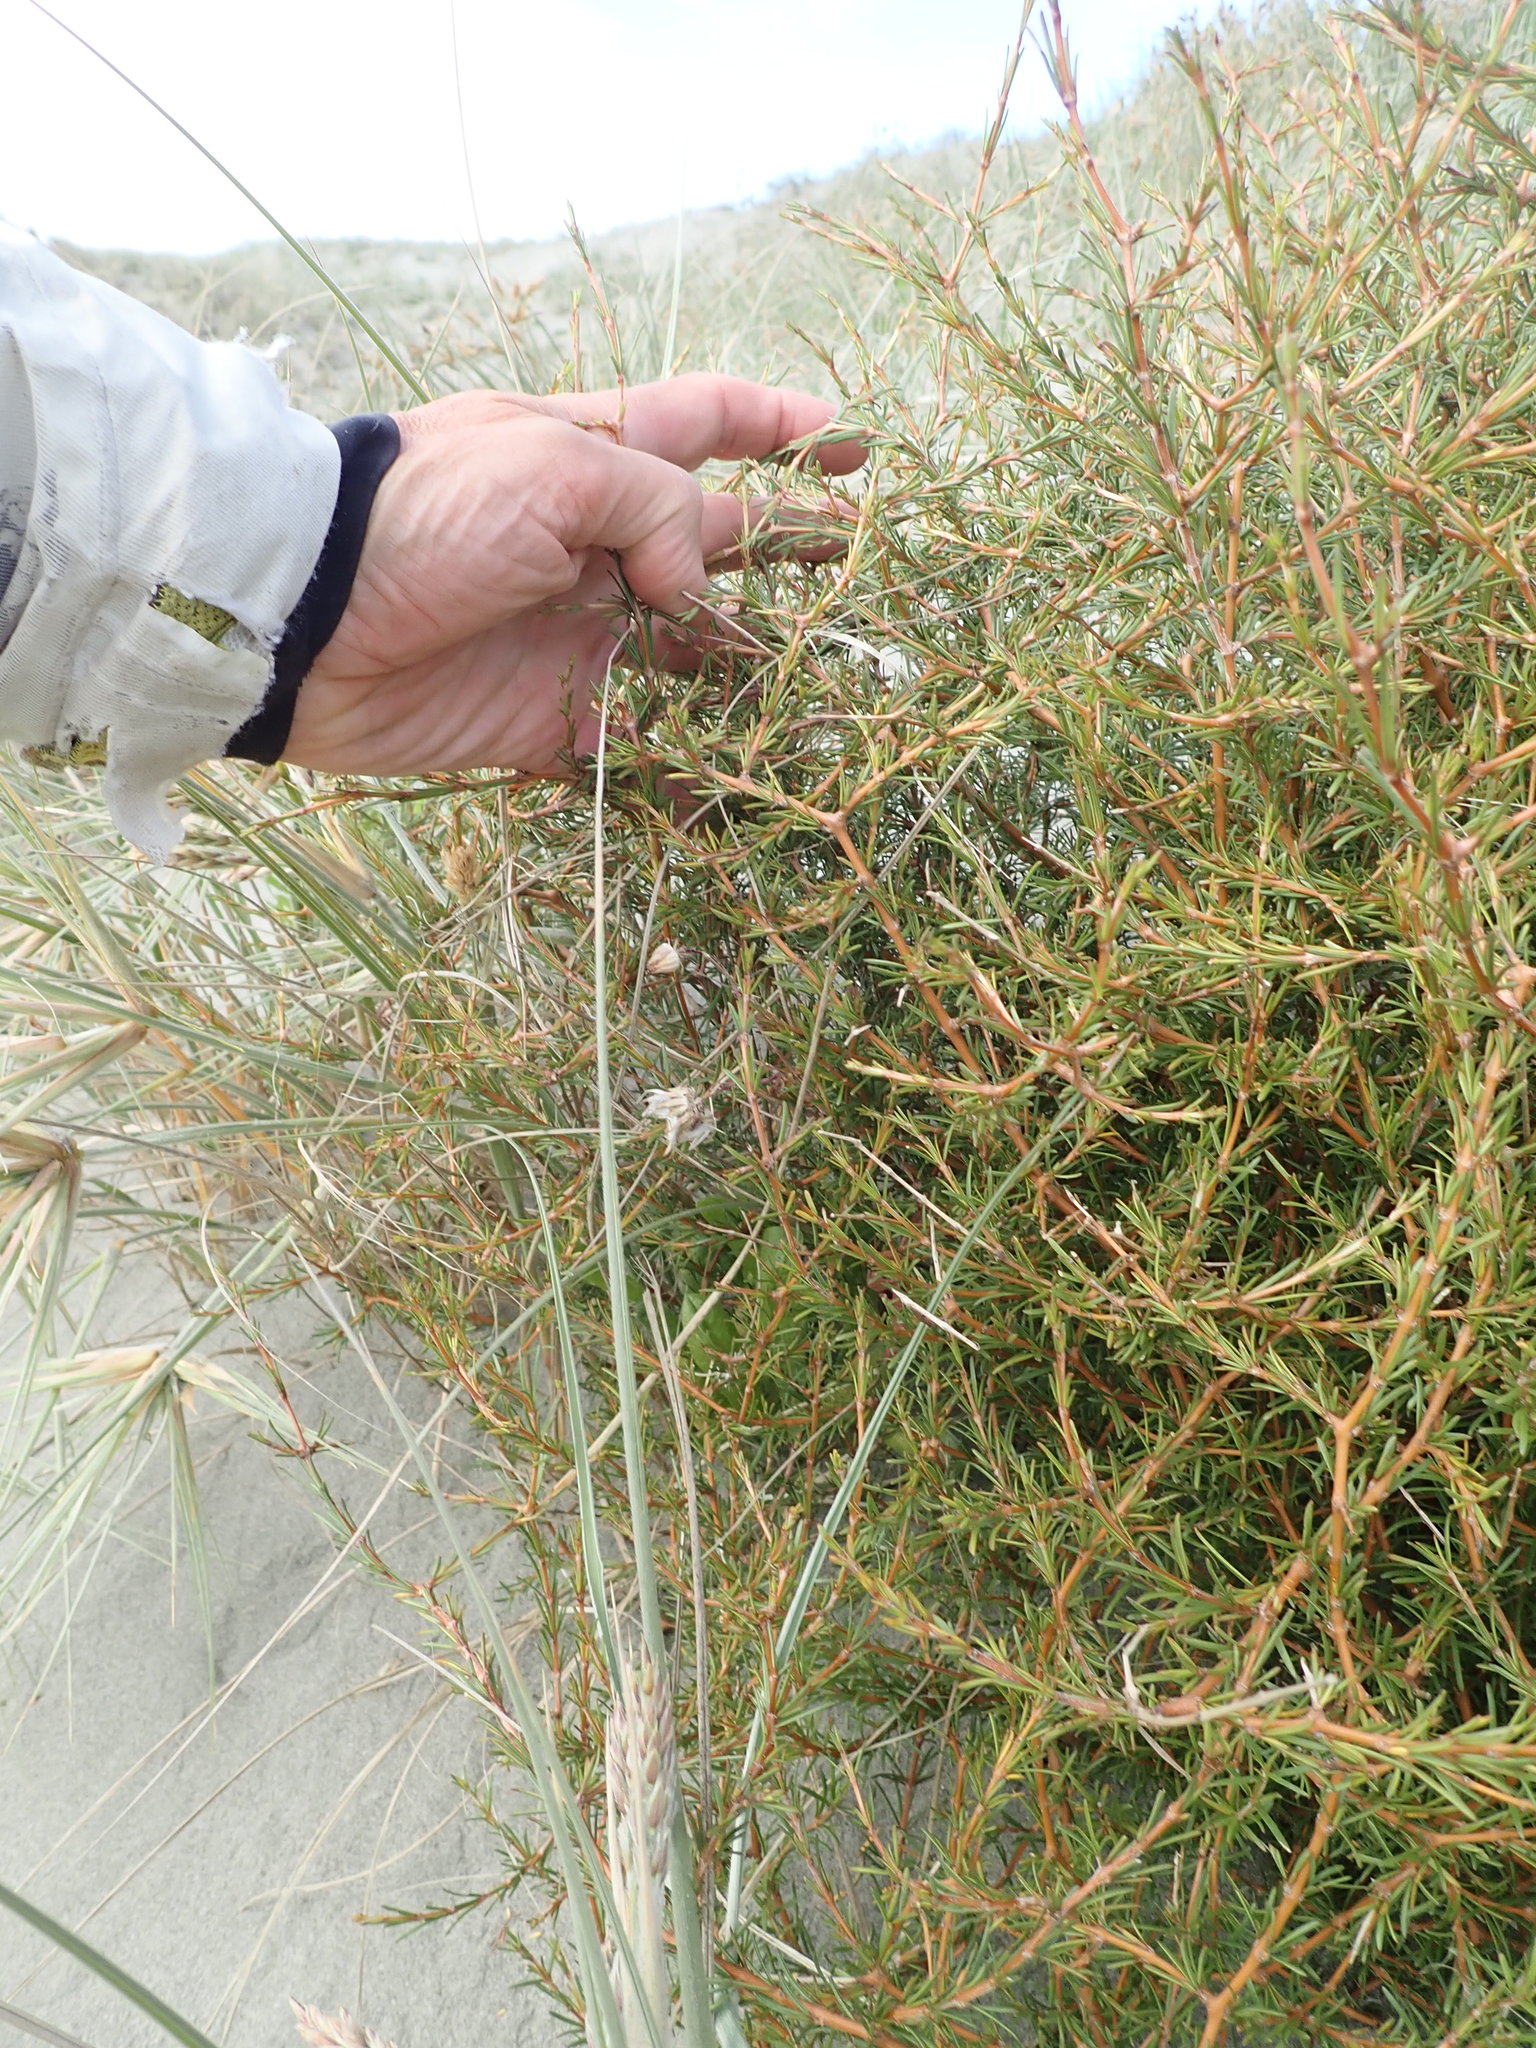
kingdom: Plantae
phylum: Tracheophyta
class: Magnoliopsida
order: Gentianales
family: Rubiaceae
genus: Coprosma
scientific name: Coprosma acerosa
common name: Sand coprosma
